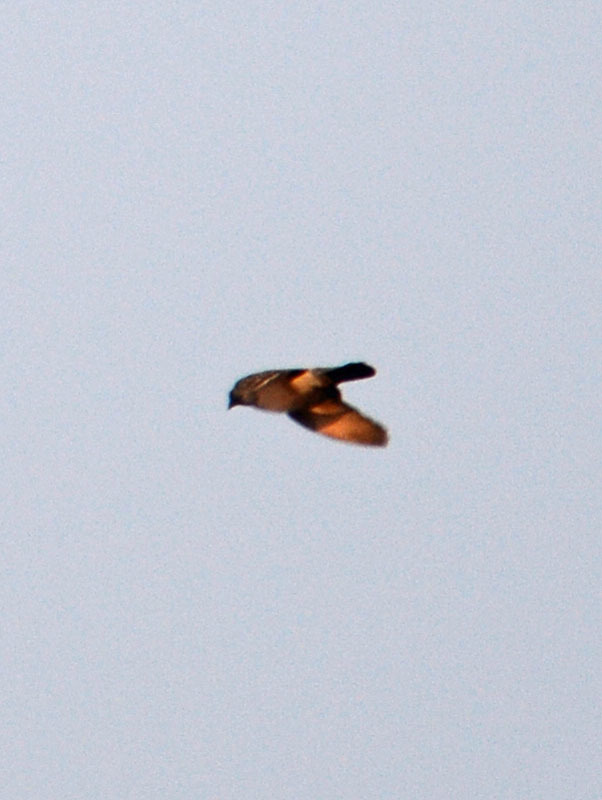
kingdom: Animalia
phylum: Chordata
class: Aves
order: Columbiformes
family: Columbidae
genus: Columba
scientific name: Columba livia
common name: Rock pigeon
